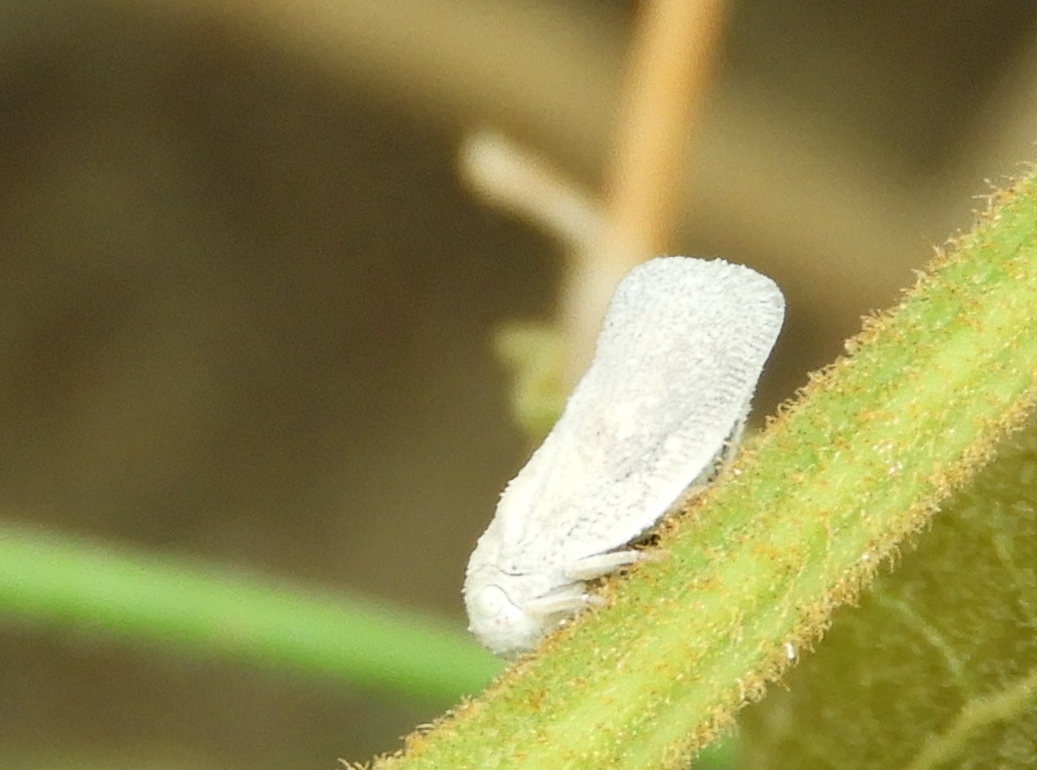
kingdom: Animalia
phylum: Arthropoda
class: Insecta
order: Hemiptera
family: Flatidae
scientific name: Flatidae
